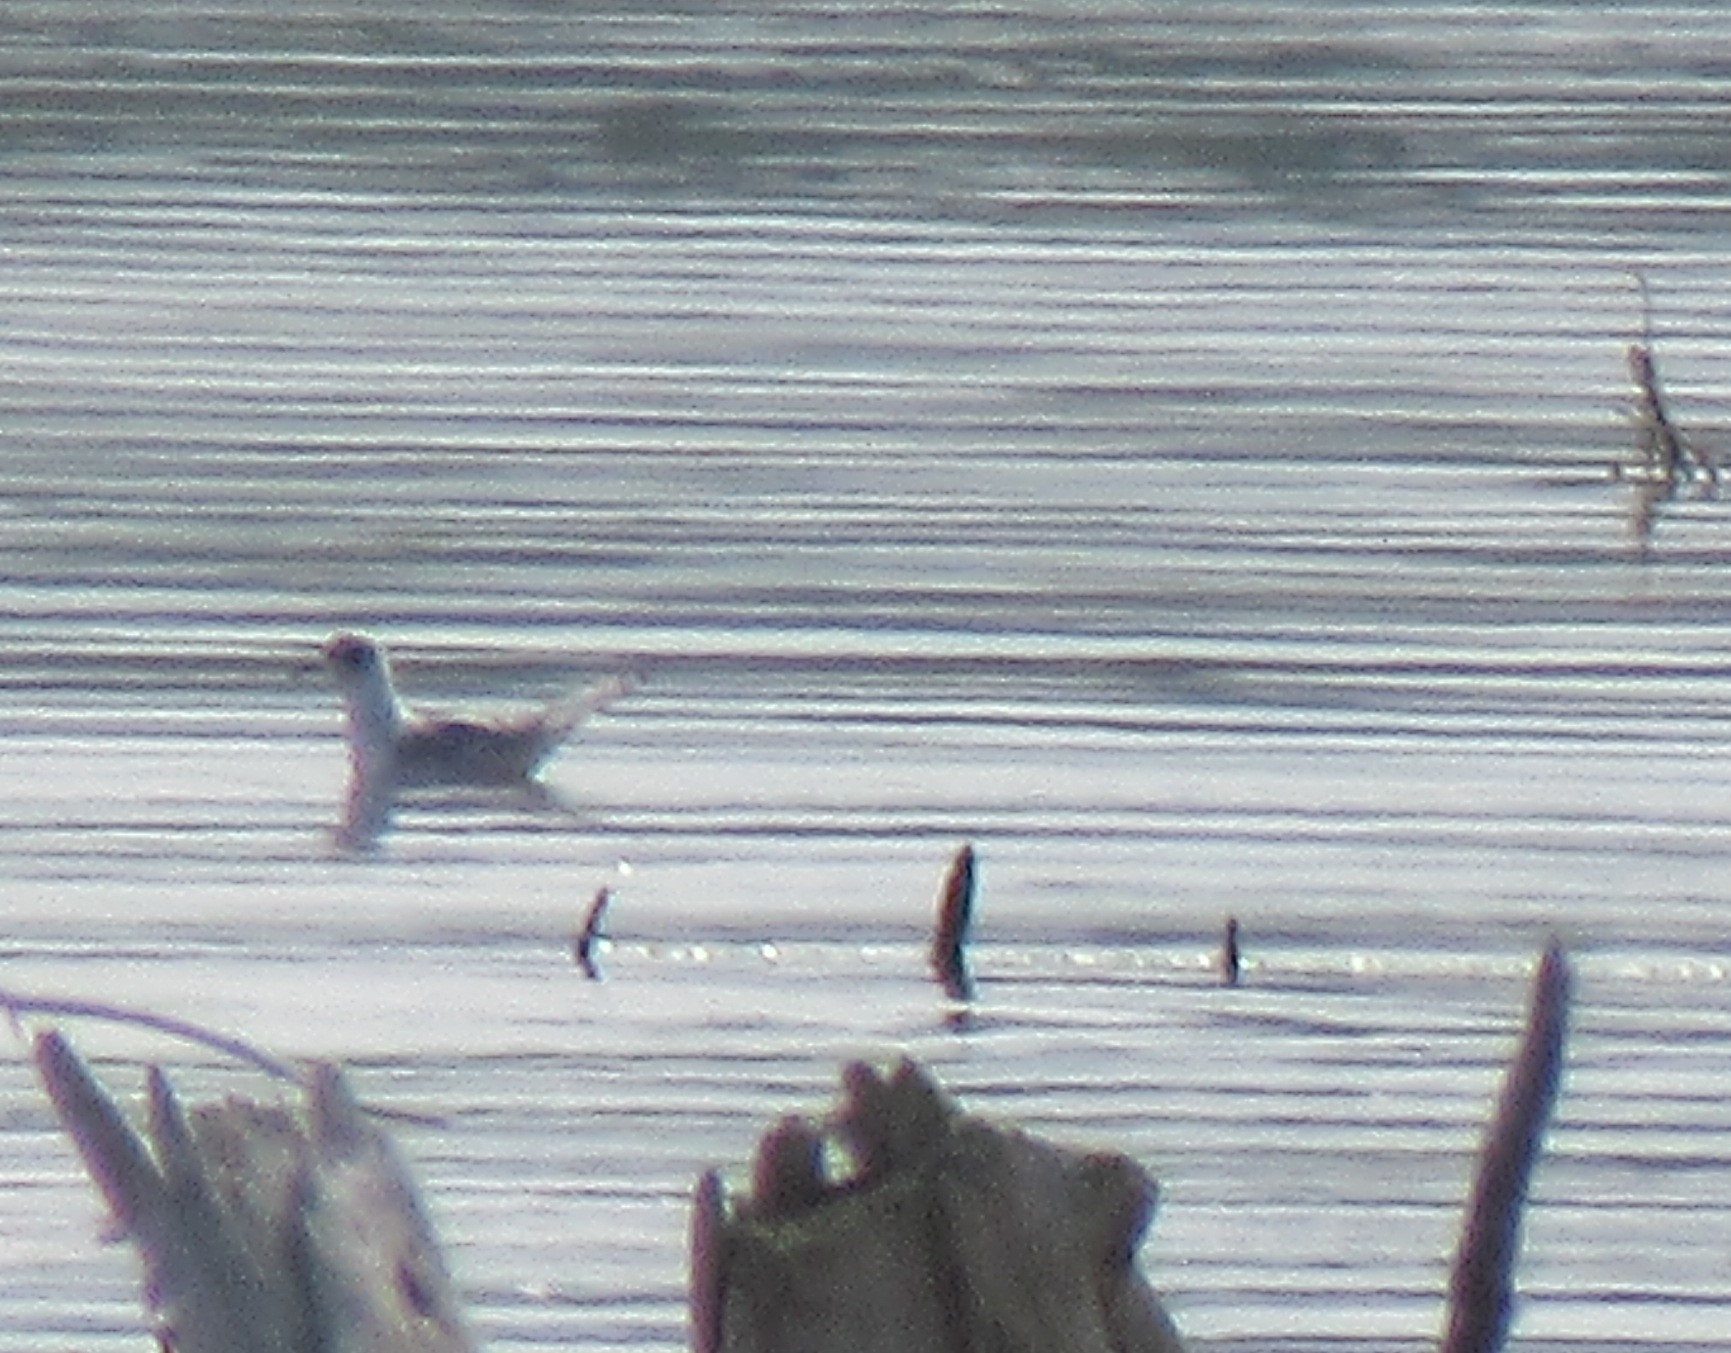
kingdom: Animalia
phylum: Chordata
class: Aves
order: Charadriiformes
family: Laridae
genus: Chroicocephalus
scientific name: Chroicocephalus philadelphia
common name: Bonaparte's gull
